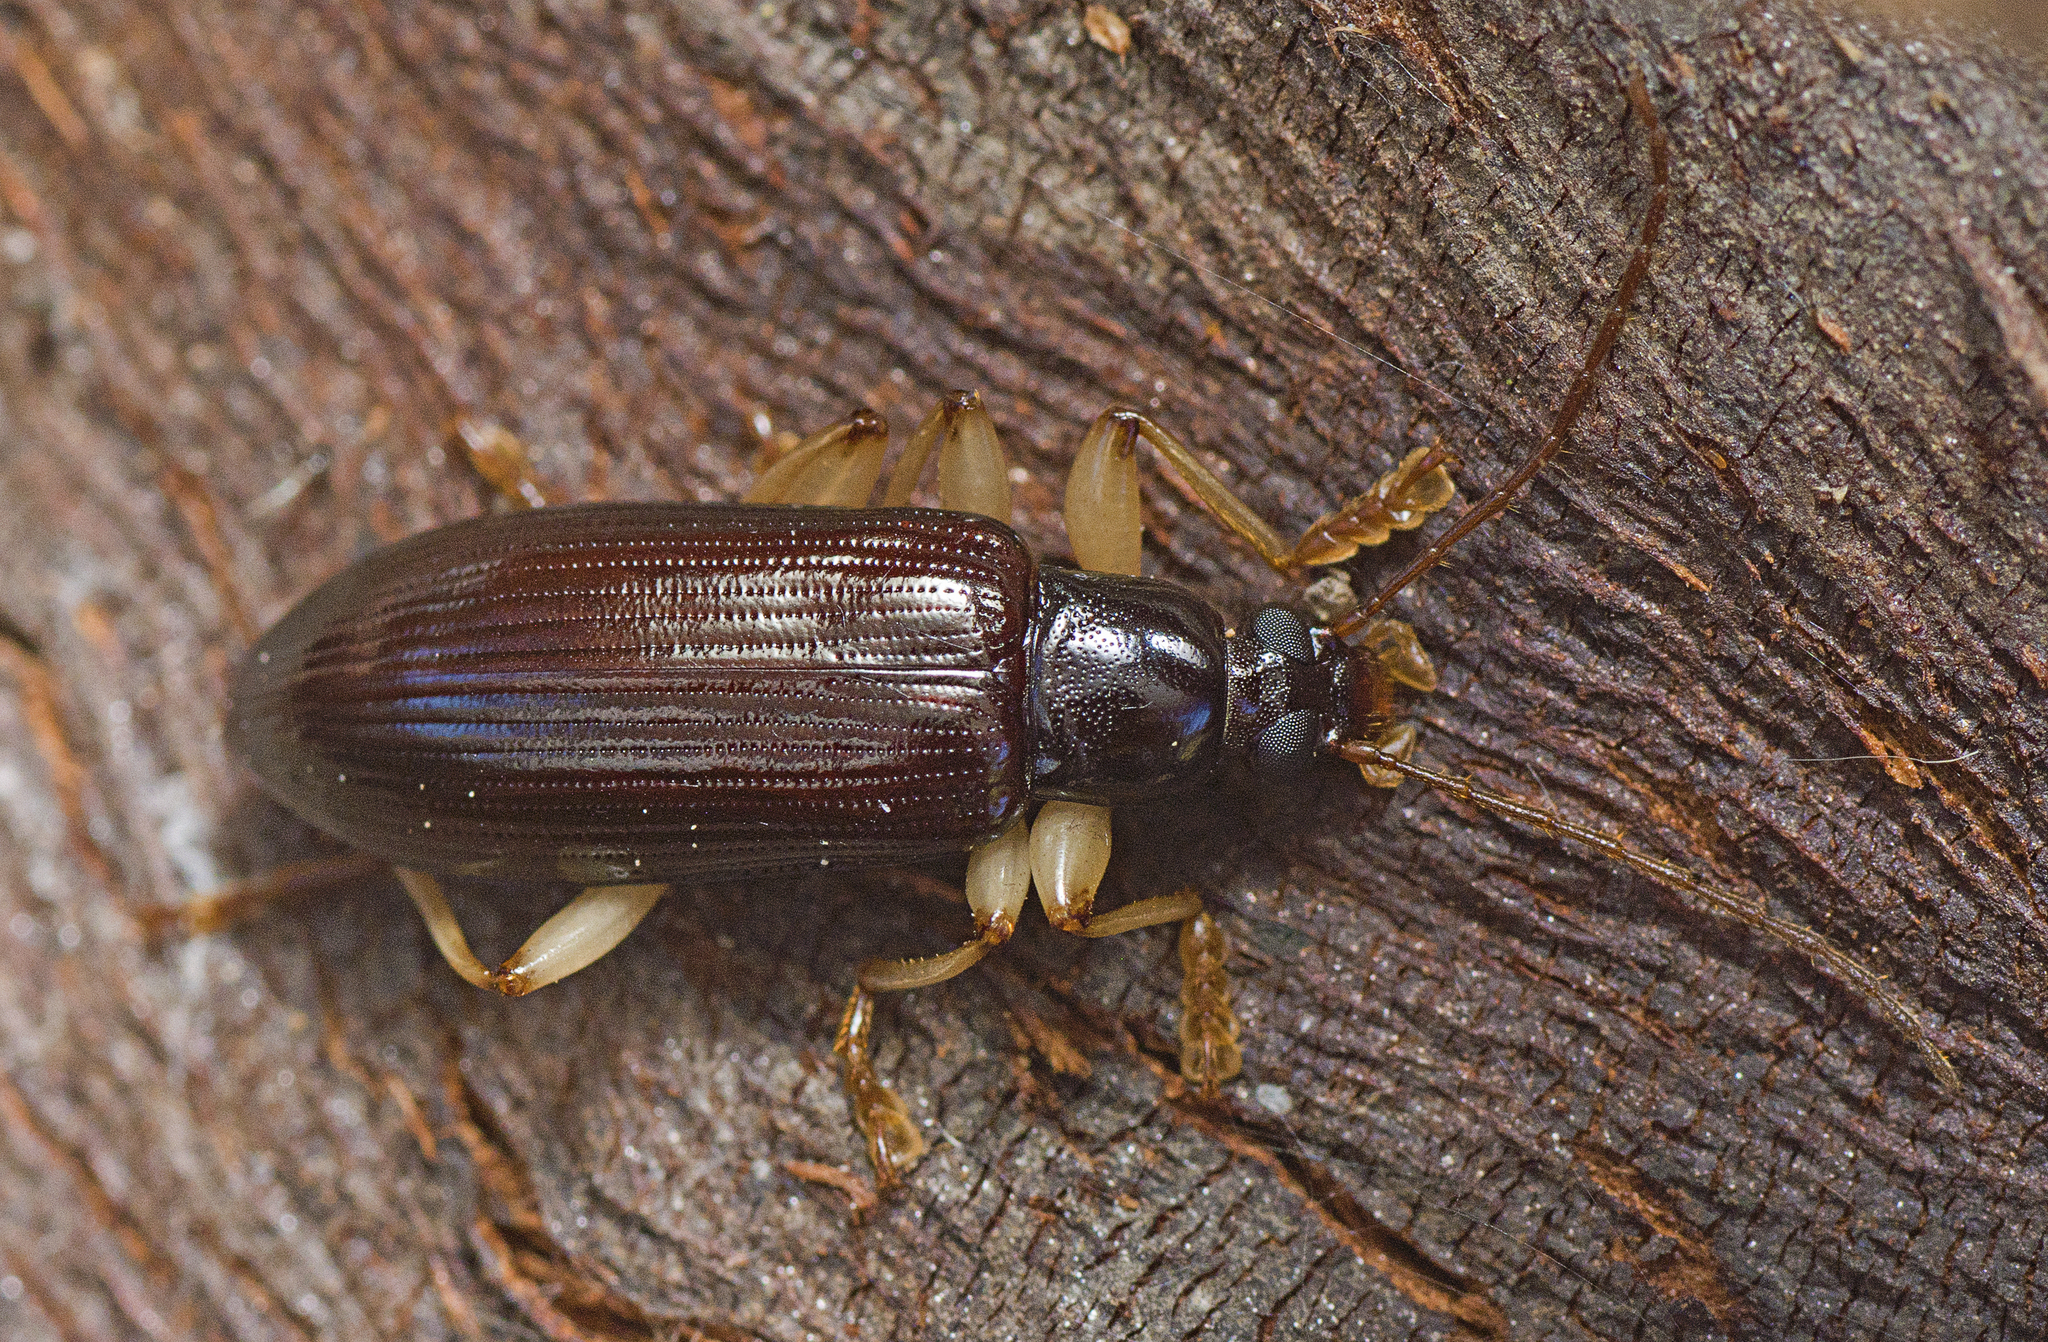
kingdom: Animalia
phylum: Arthropoda
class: Insecta
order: Coleoptera
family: Tenebrionidae
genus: Dimorphochilus
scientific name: Dimorphochilus
